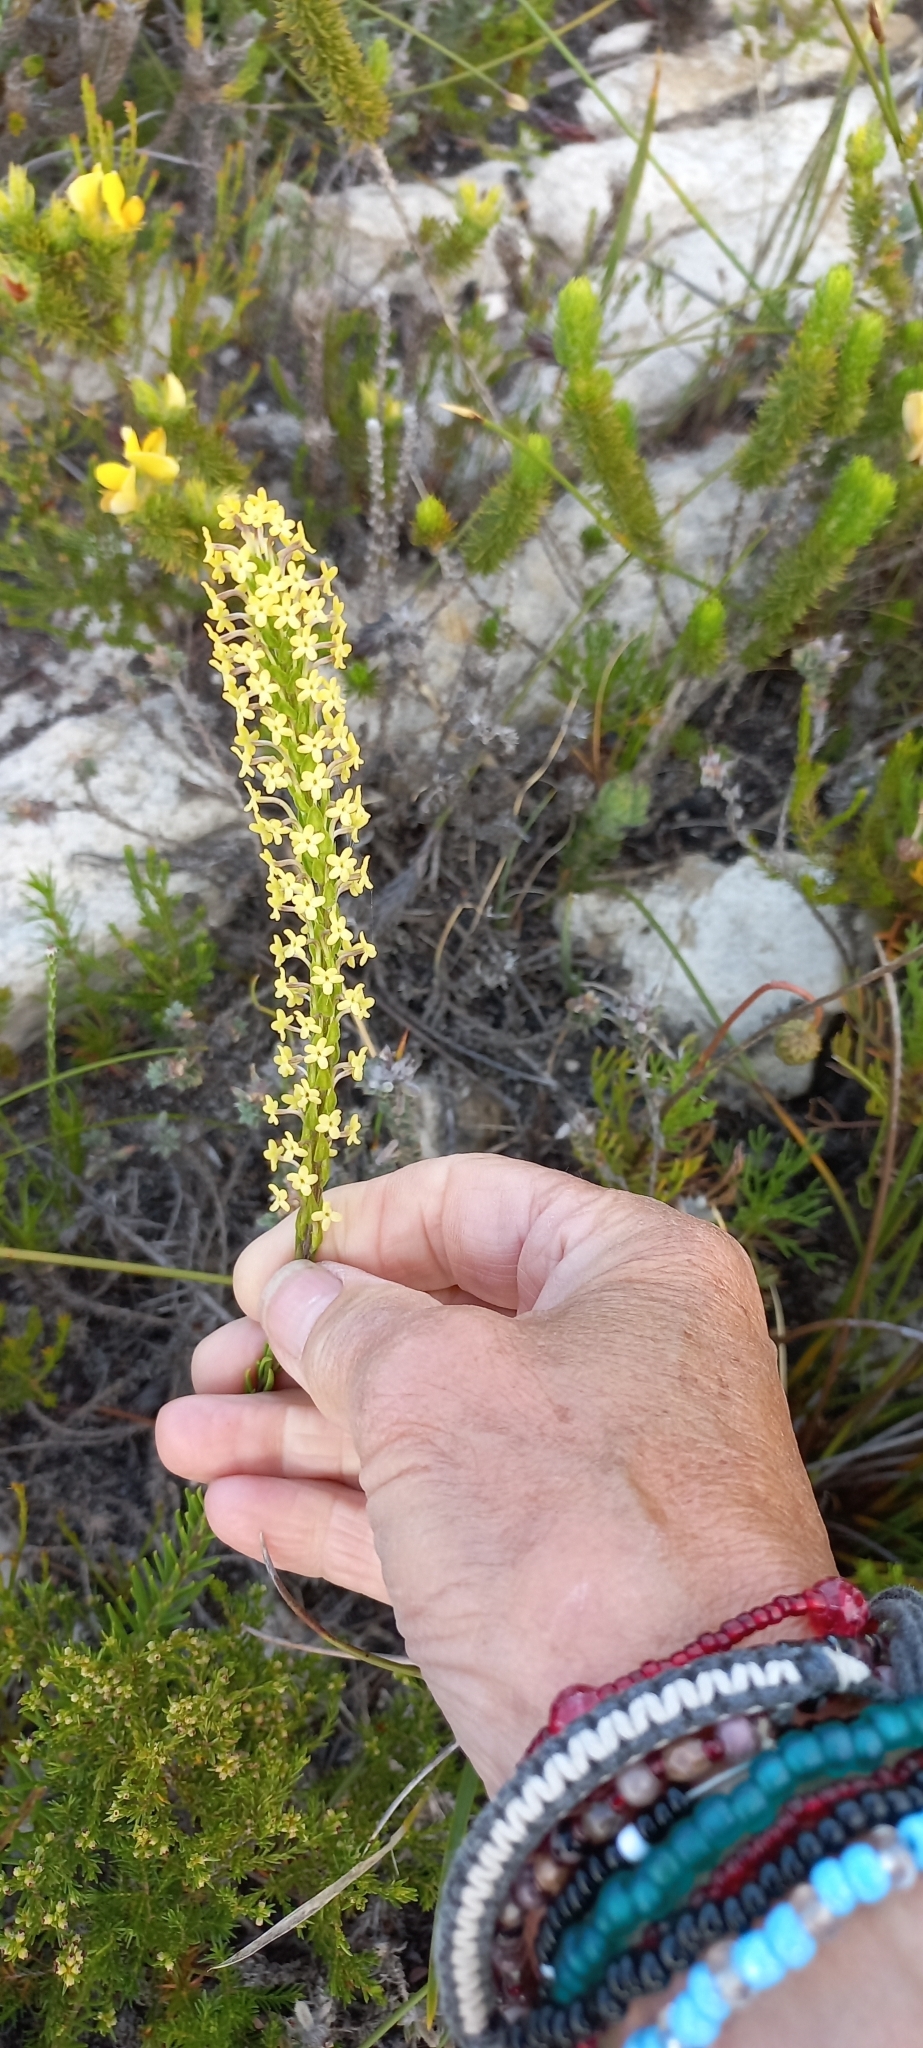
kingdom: Plantae
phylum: Tracheophyta
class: Magnoliopsida
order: Lamiales
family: Scrophulariaceae
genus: Microdon
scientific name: Microdon dubius
